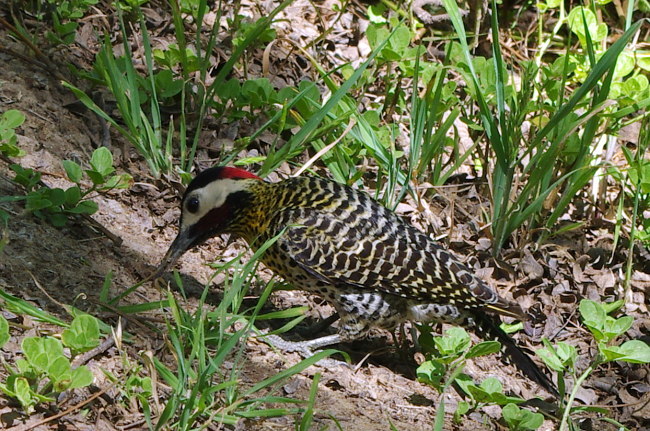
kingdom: Animalia
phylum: Chordata
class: Aves
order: Piciformes
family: Picidae
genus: Colaptes
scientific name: Colaptes melanochloros
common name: Green-barred woodpecker
